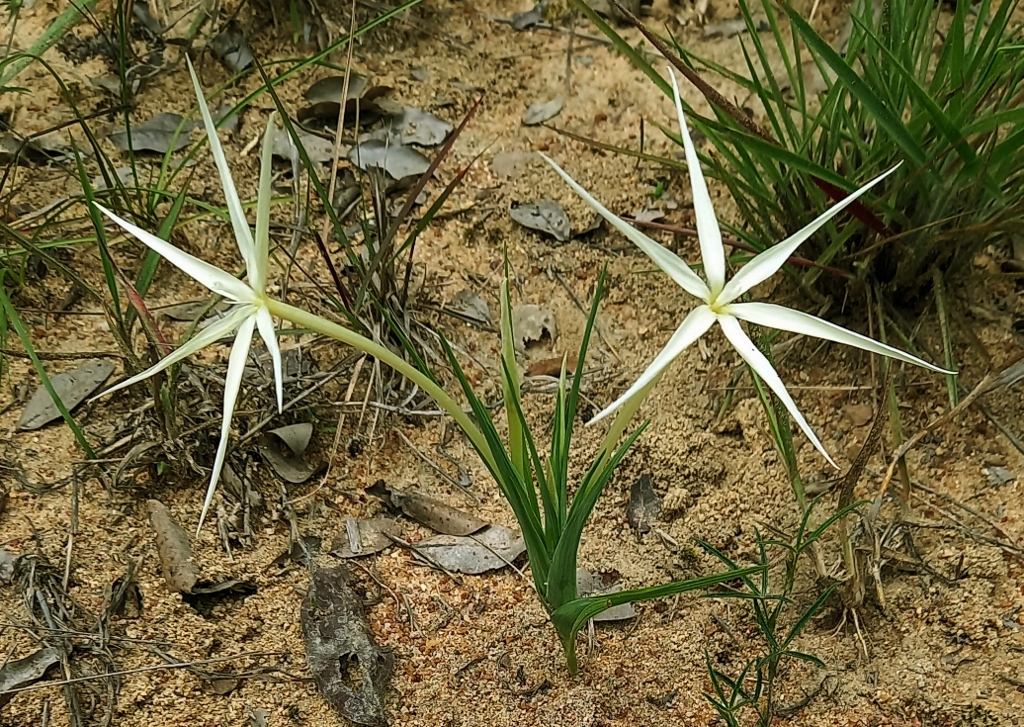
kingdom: Plantae
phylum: Tracheophyta
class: Liliopsida
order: Asparagales
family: Iridaceae
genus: Lapeirousia
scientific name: Lapeirousia odoratissima
